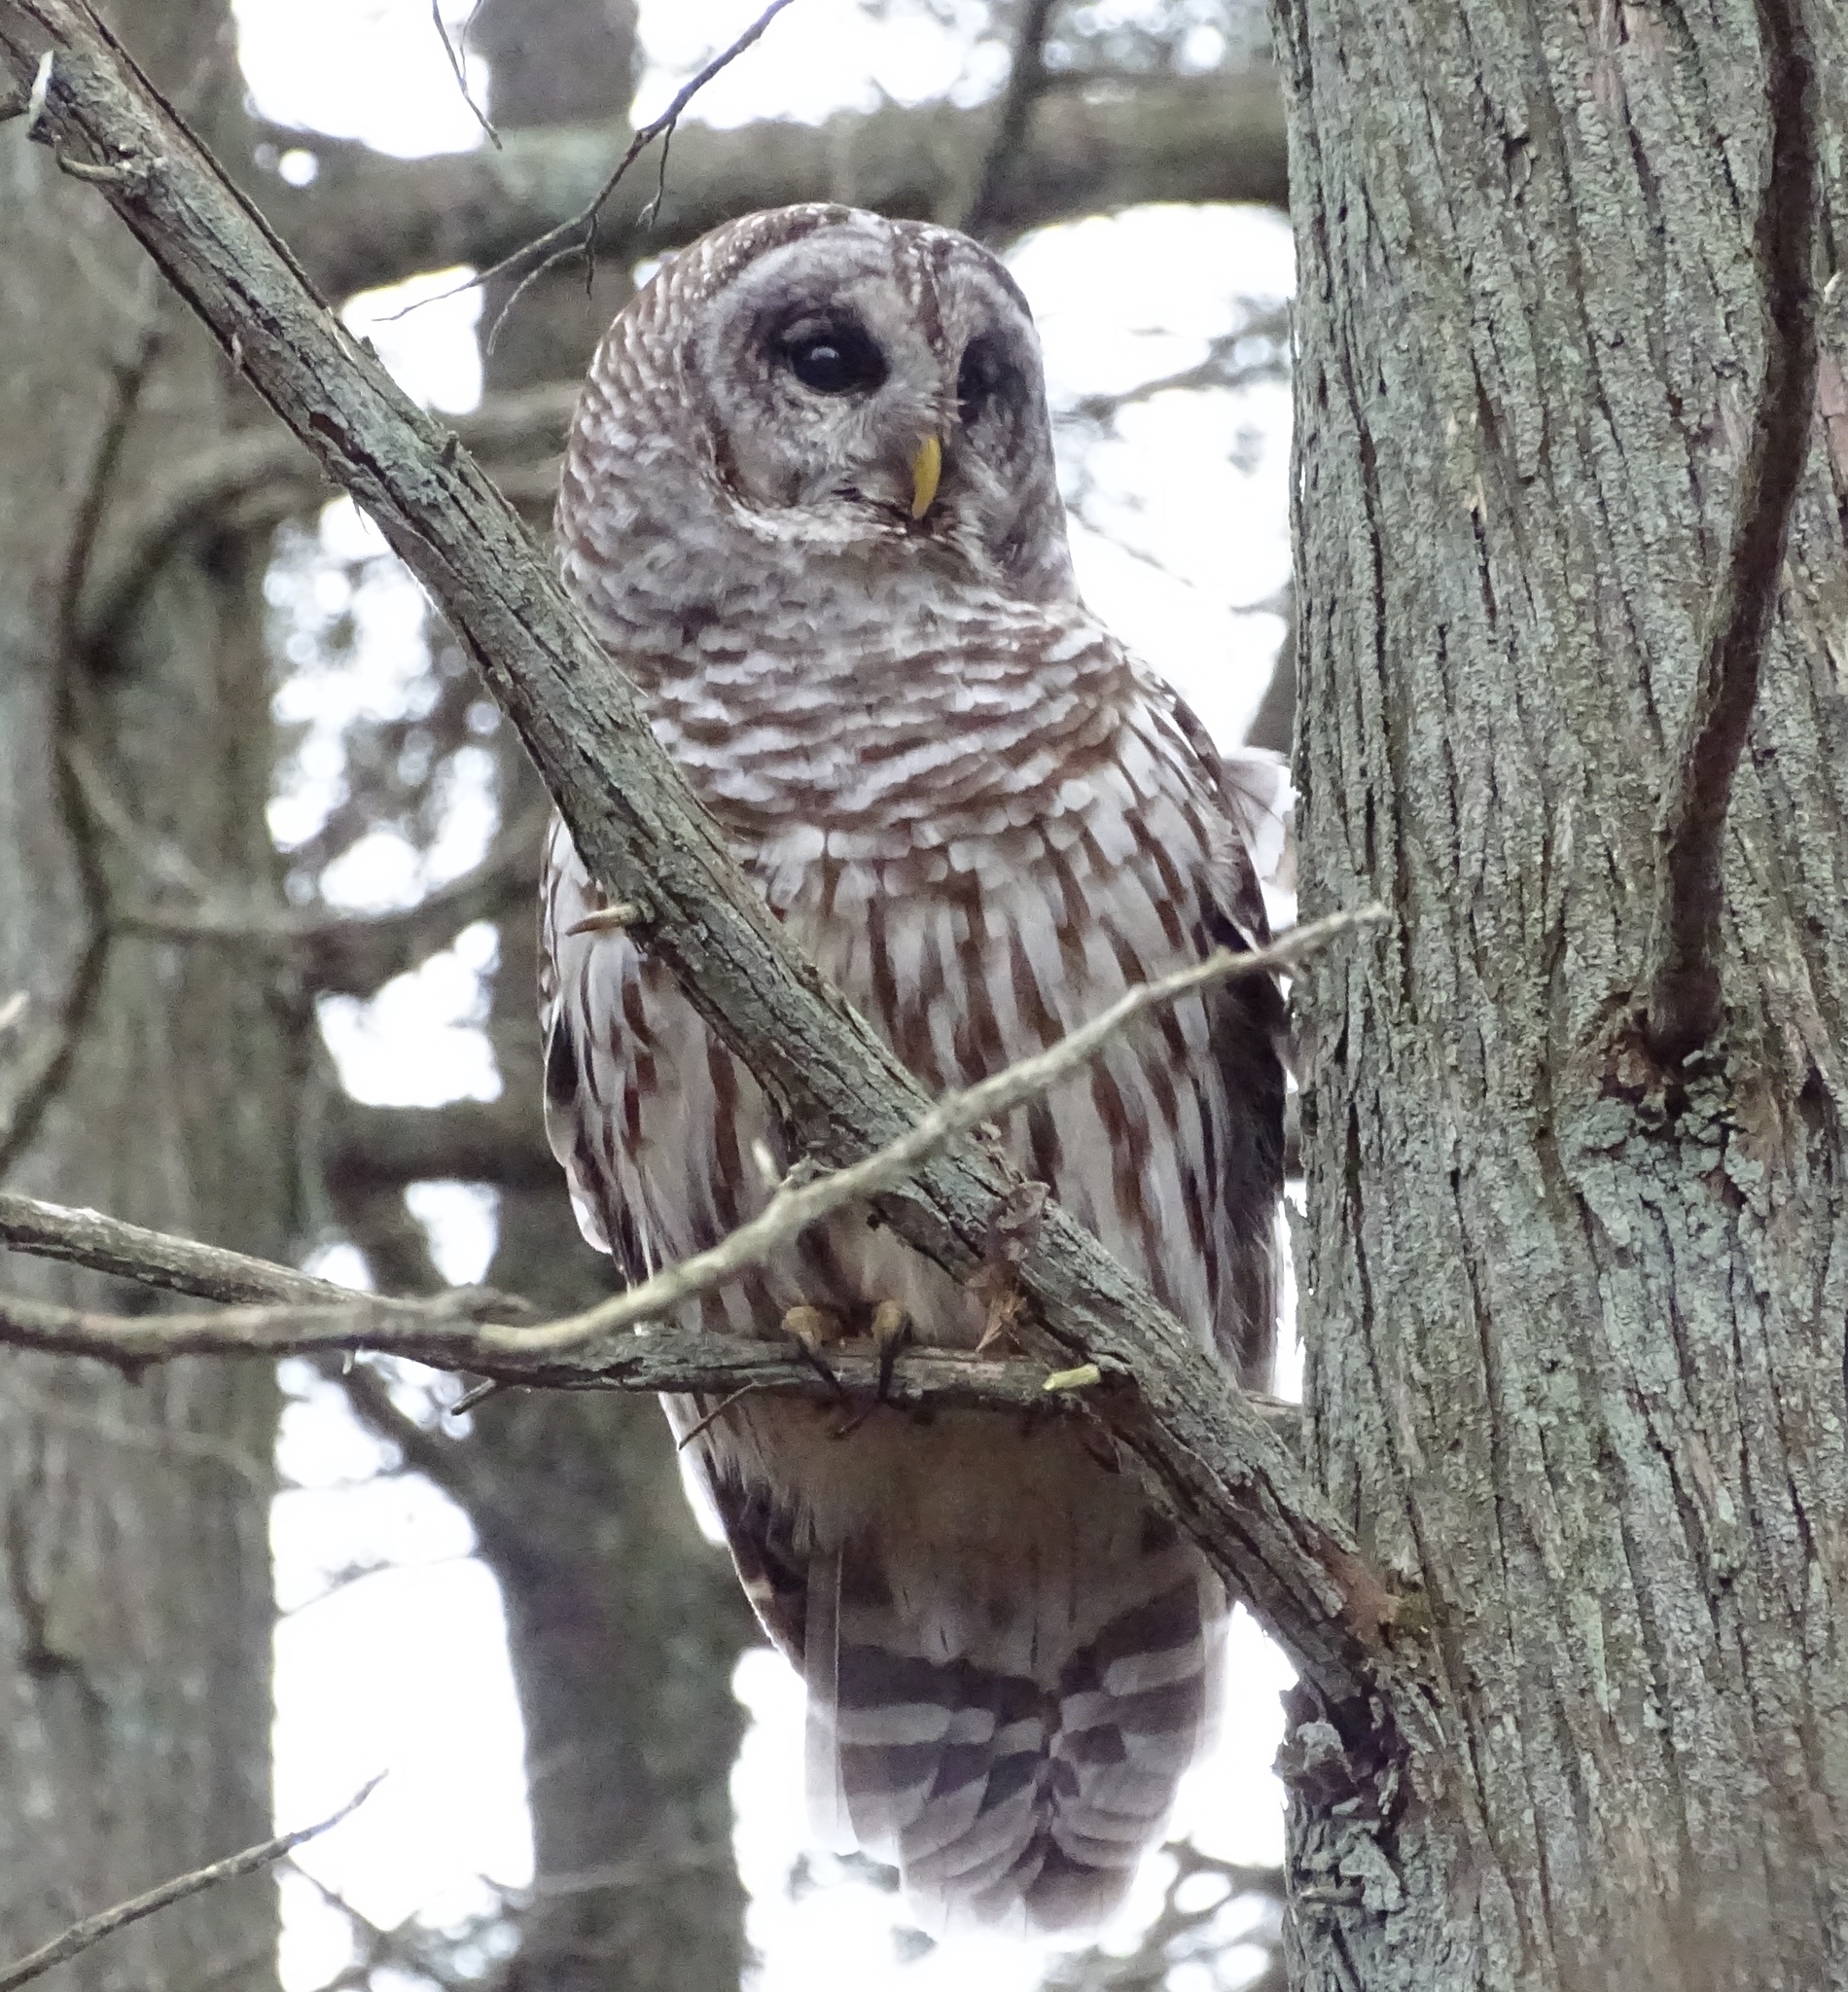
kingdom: Animalia
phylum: Chordata
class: Aves
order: Strigiformes
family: Strigidae
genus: Strix
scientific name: Strix varia
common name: Barred owl
